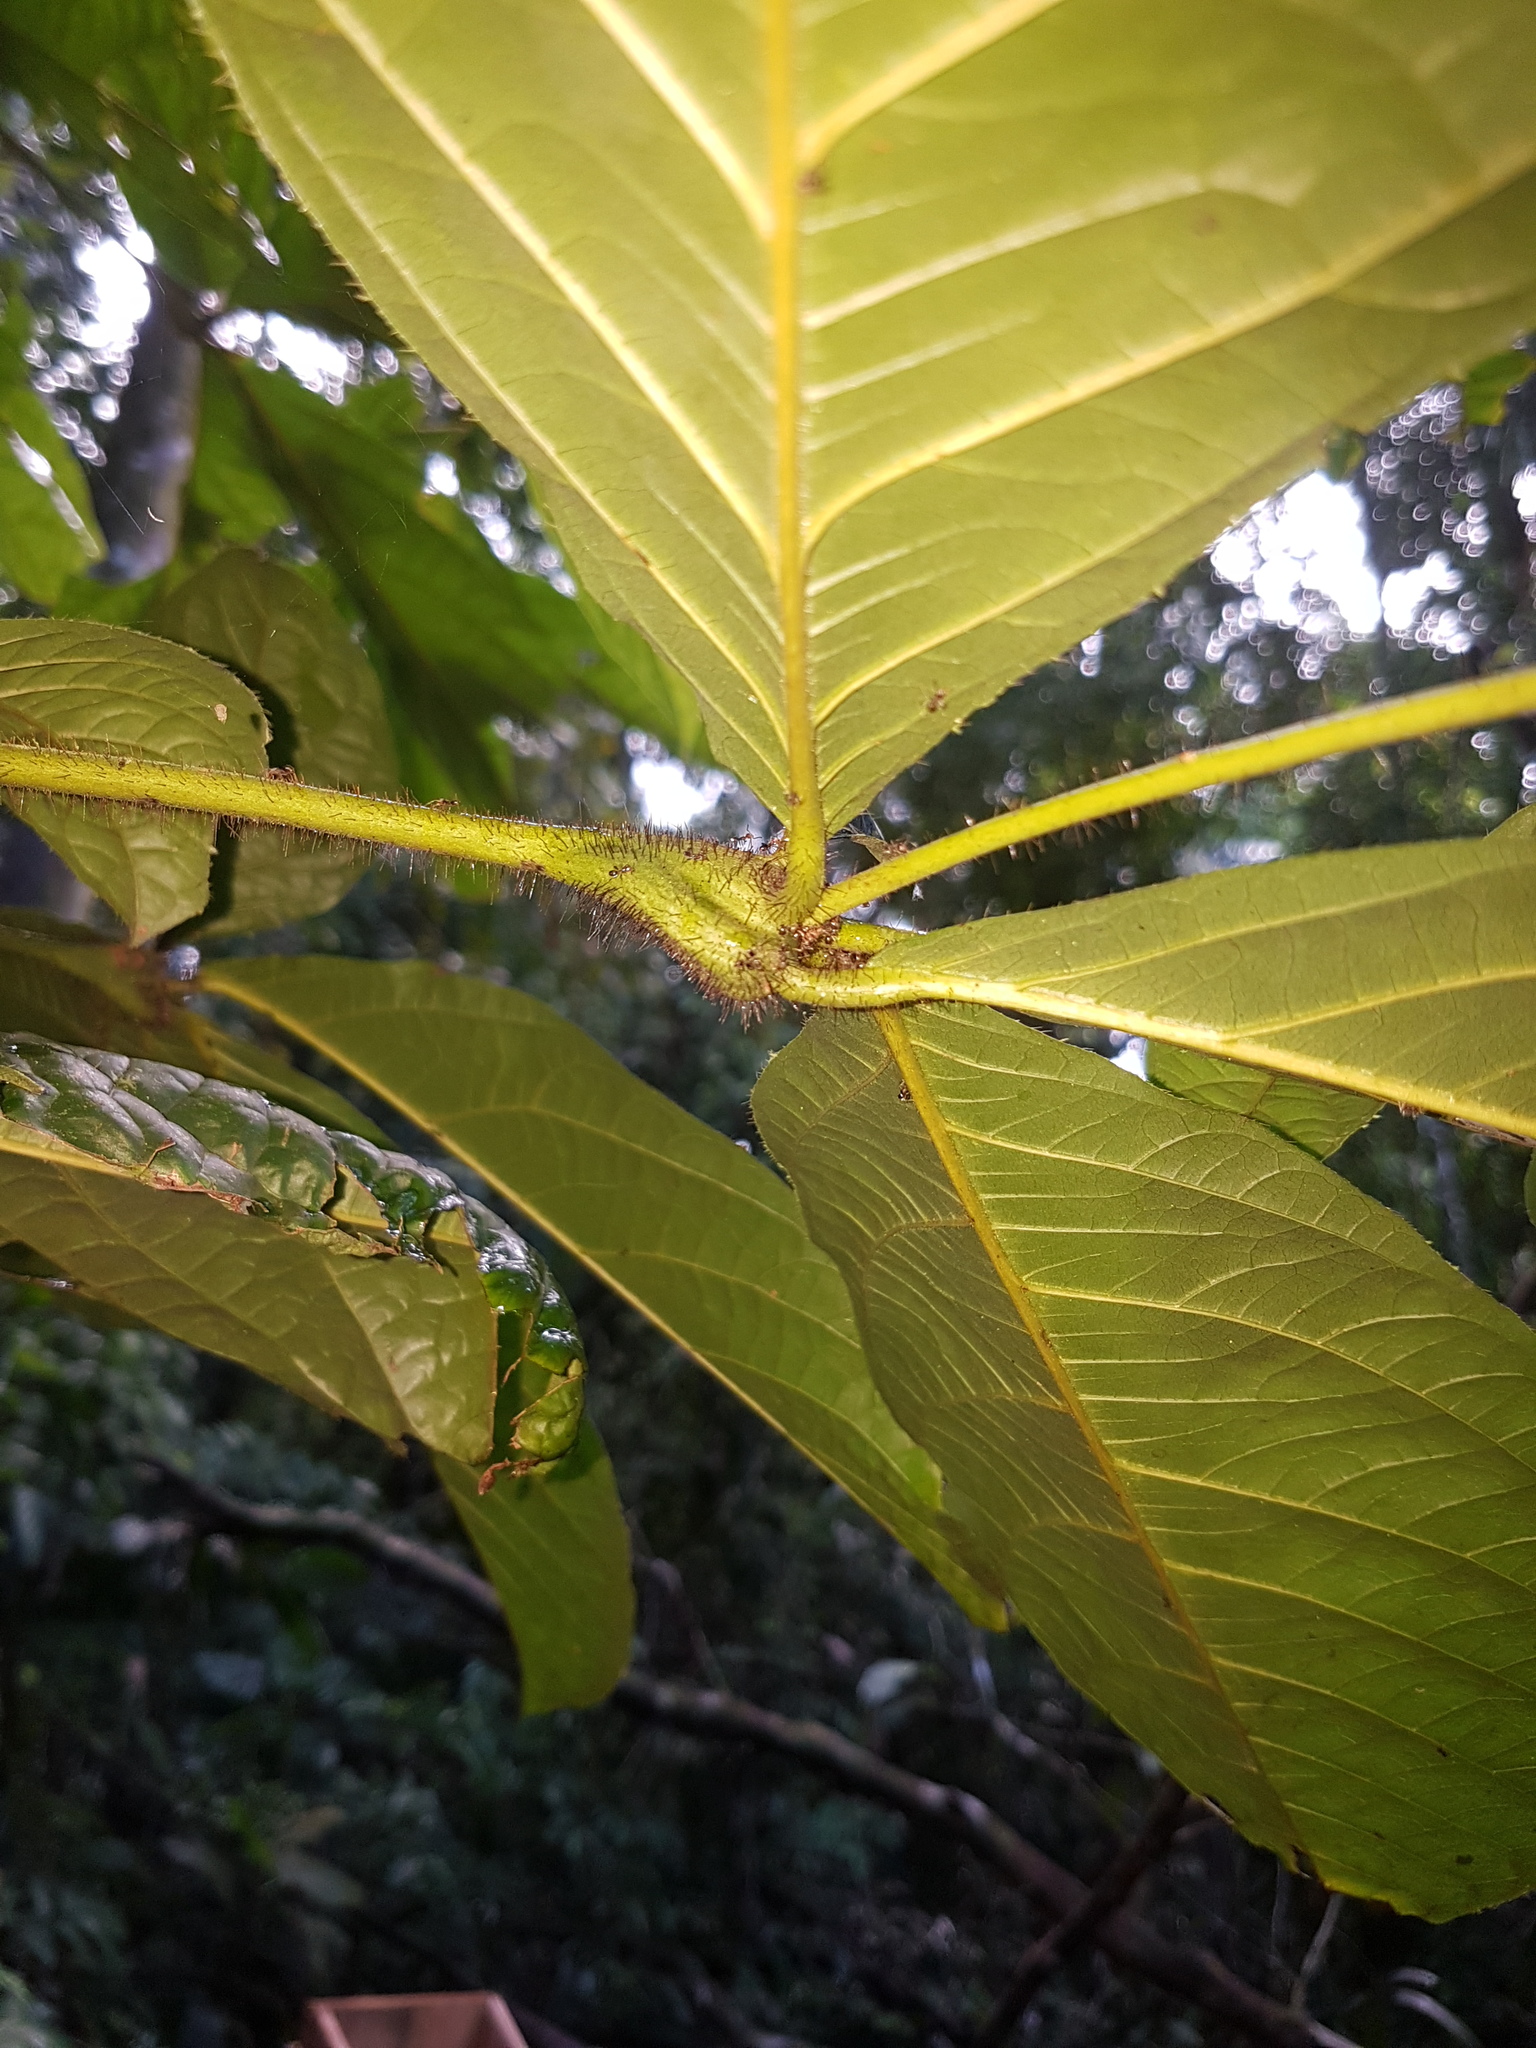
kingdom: Plantae
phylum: Tracheophyta
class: Magnoliopsida
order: Boraginales
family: Cordiaceae
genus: Cordia
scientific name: Cordia nodosa
